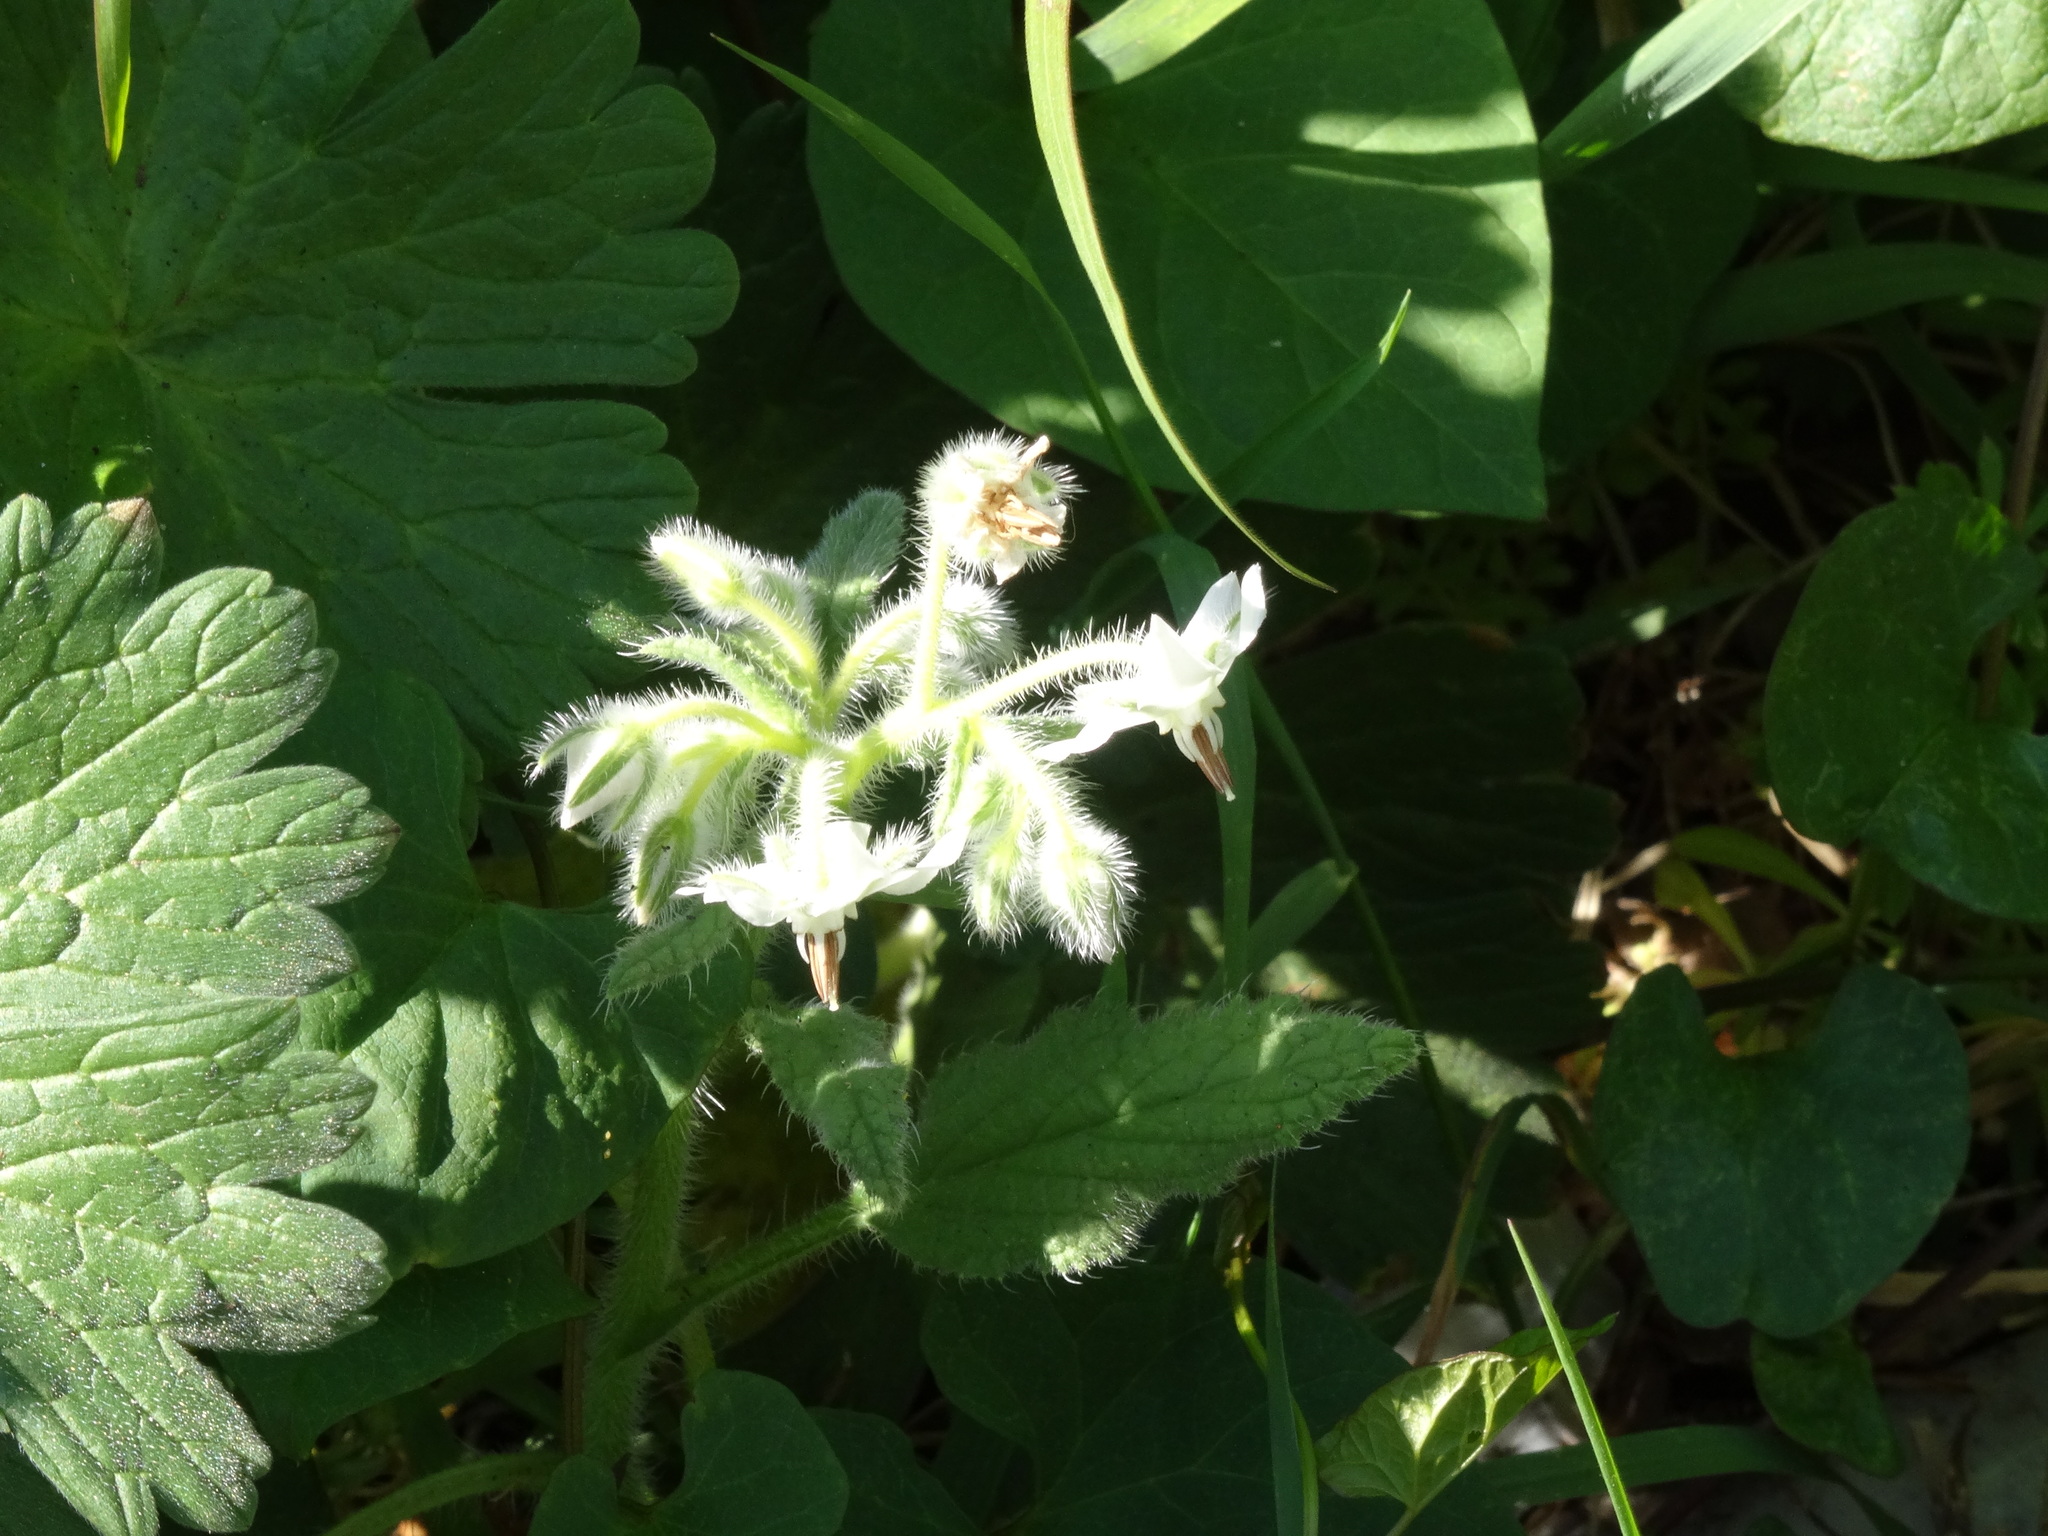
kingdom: Plantae
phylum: Tracheophyta
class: Magnoliopsida
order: Boraginales
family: Boraginaceae
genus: Borago
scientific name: Borago officinalis
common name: Borage
